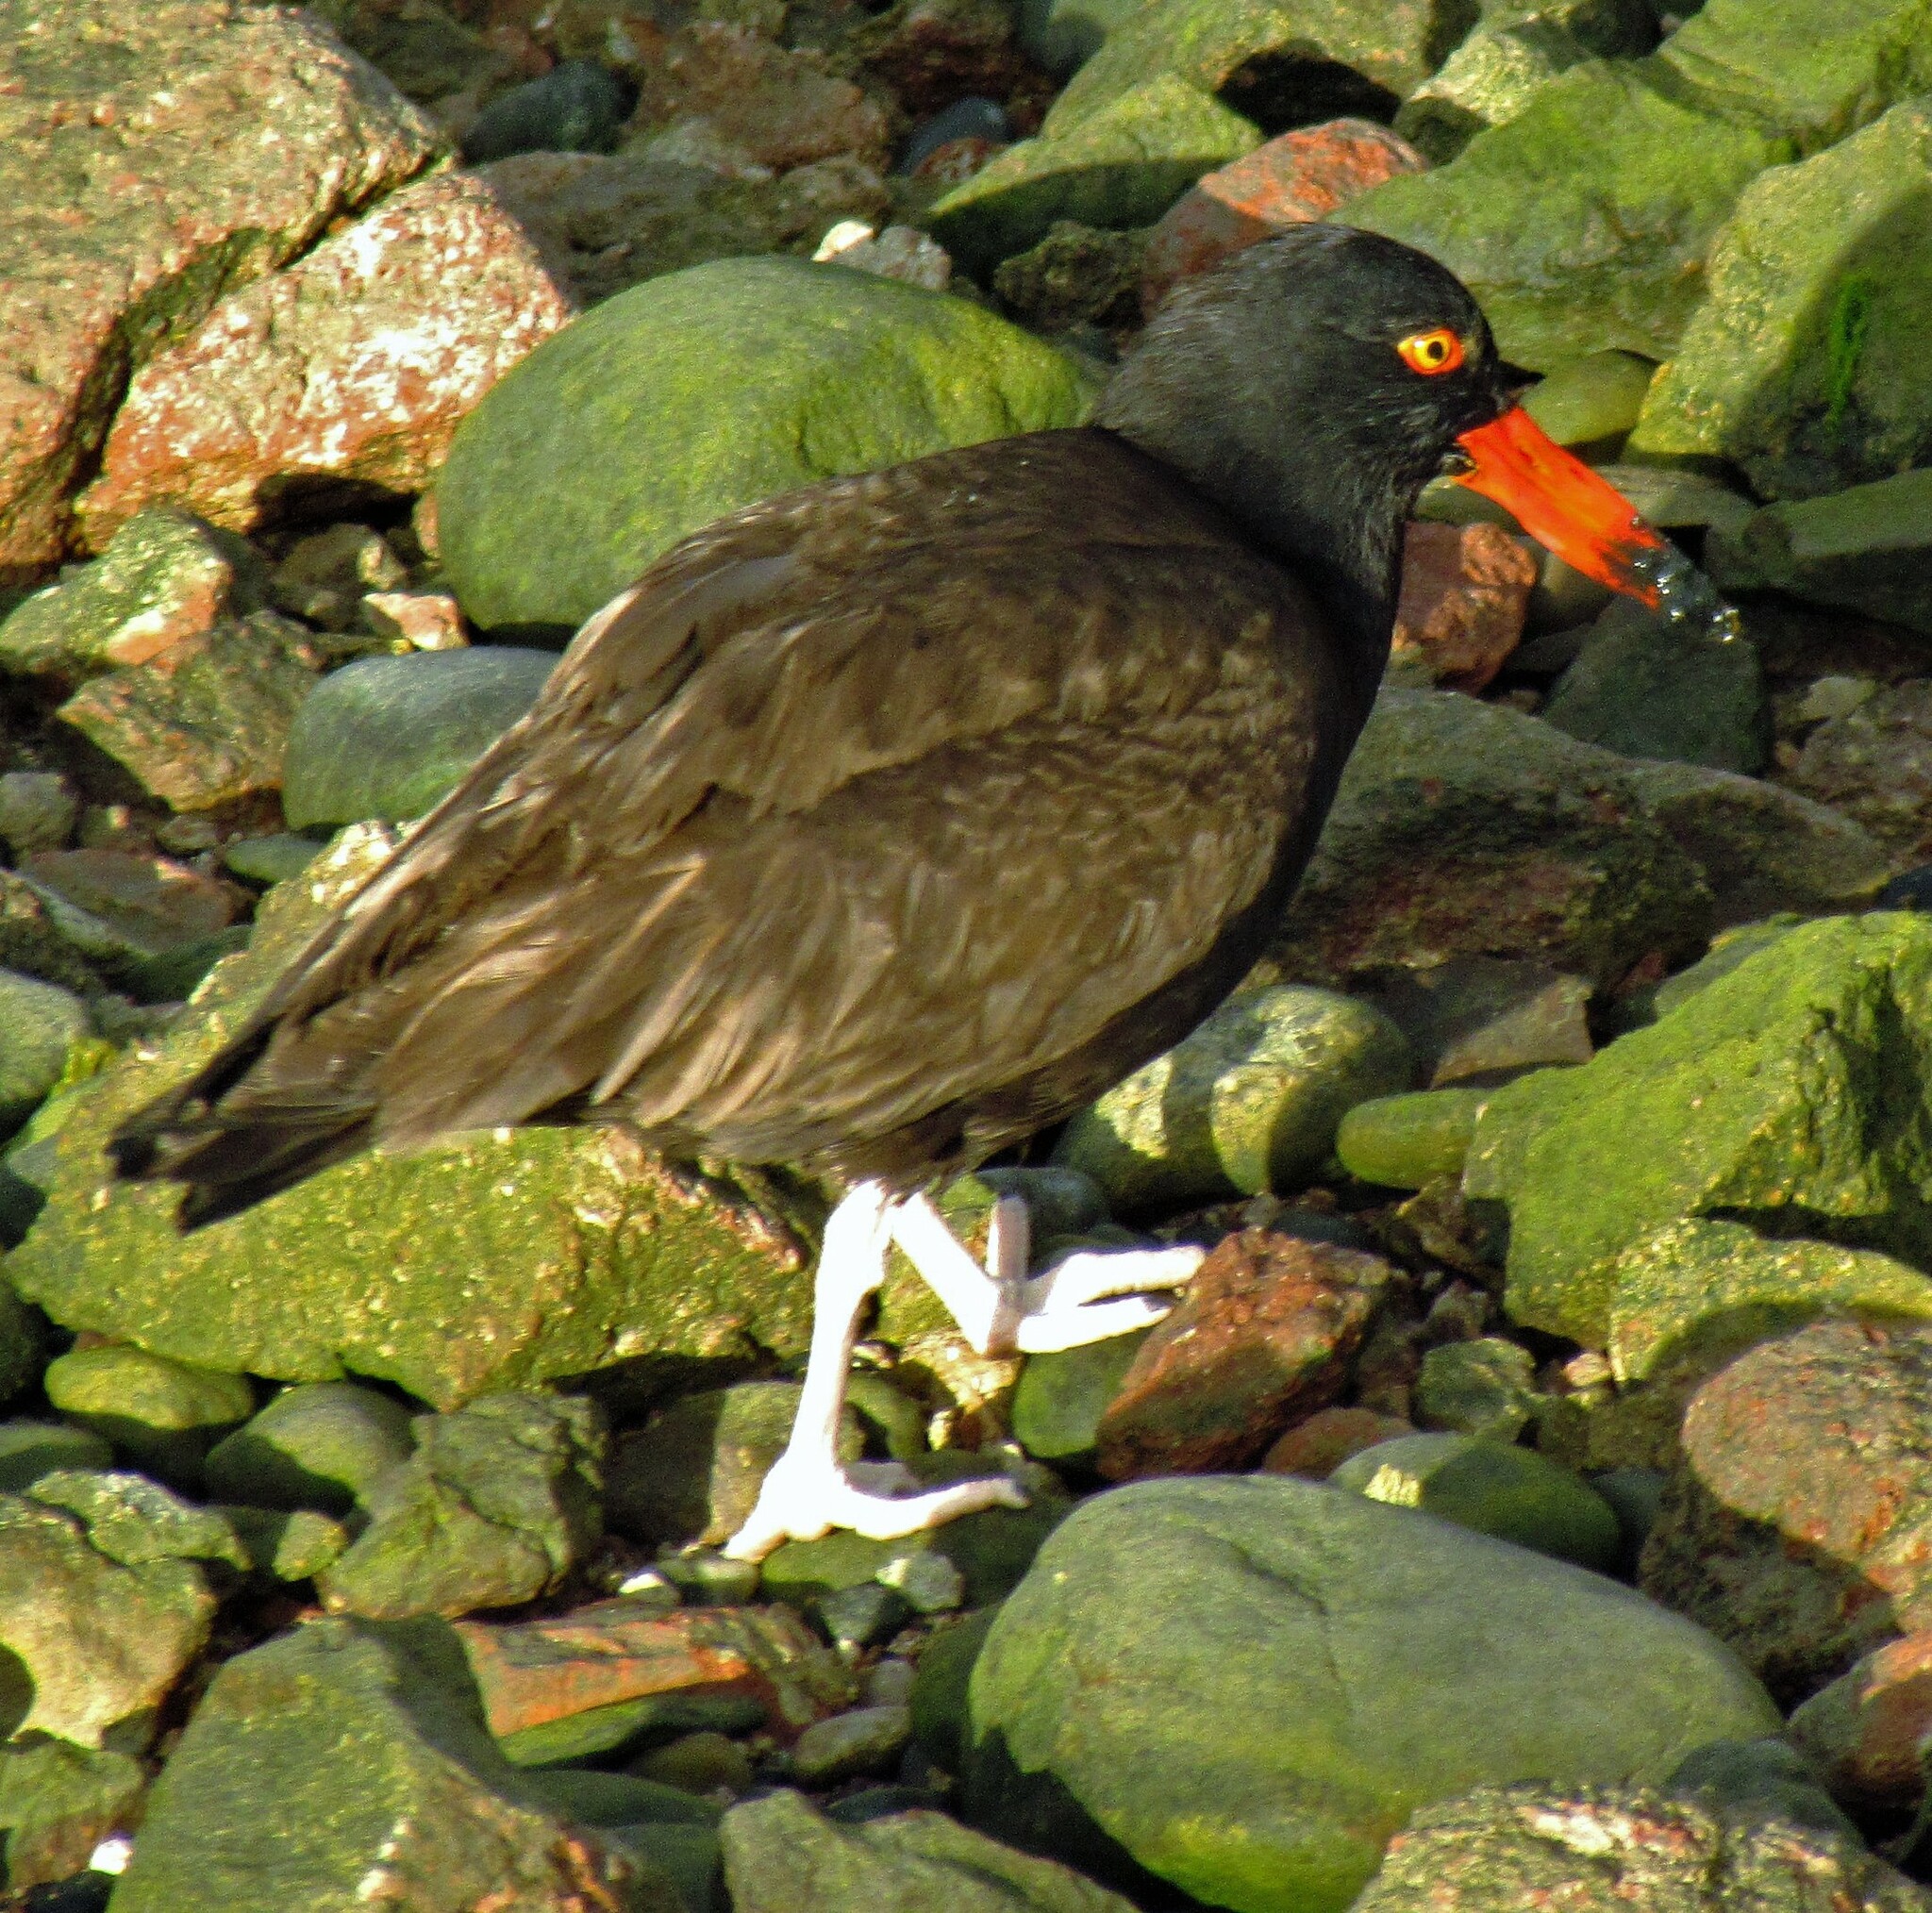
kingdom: Animalia
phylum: Chordata
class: Aves
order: Charadriiformes
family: Haematopodidae
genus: Haematopus
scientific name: Haematopus ater
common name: Blackish oystercatcher
